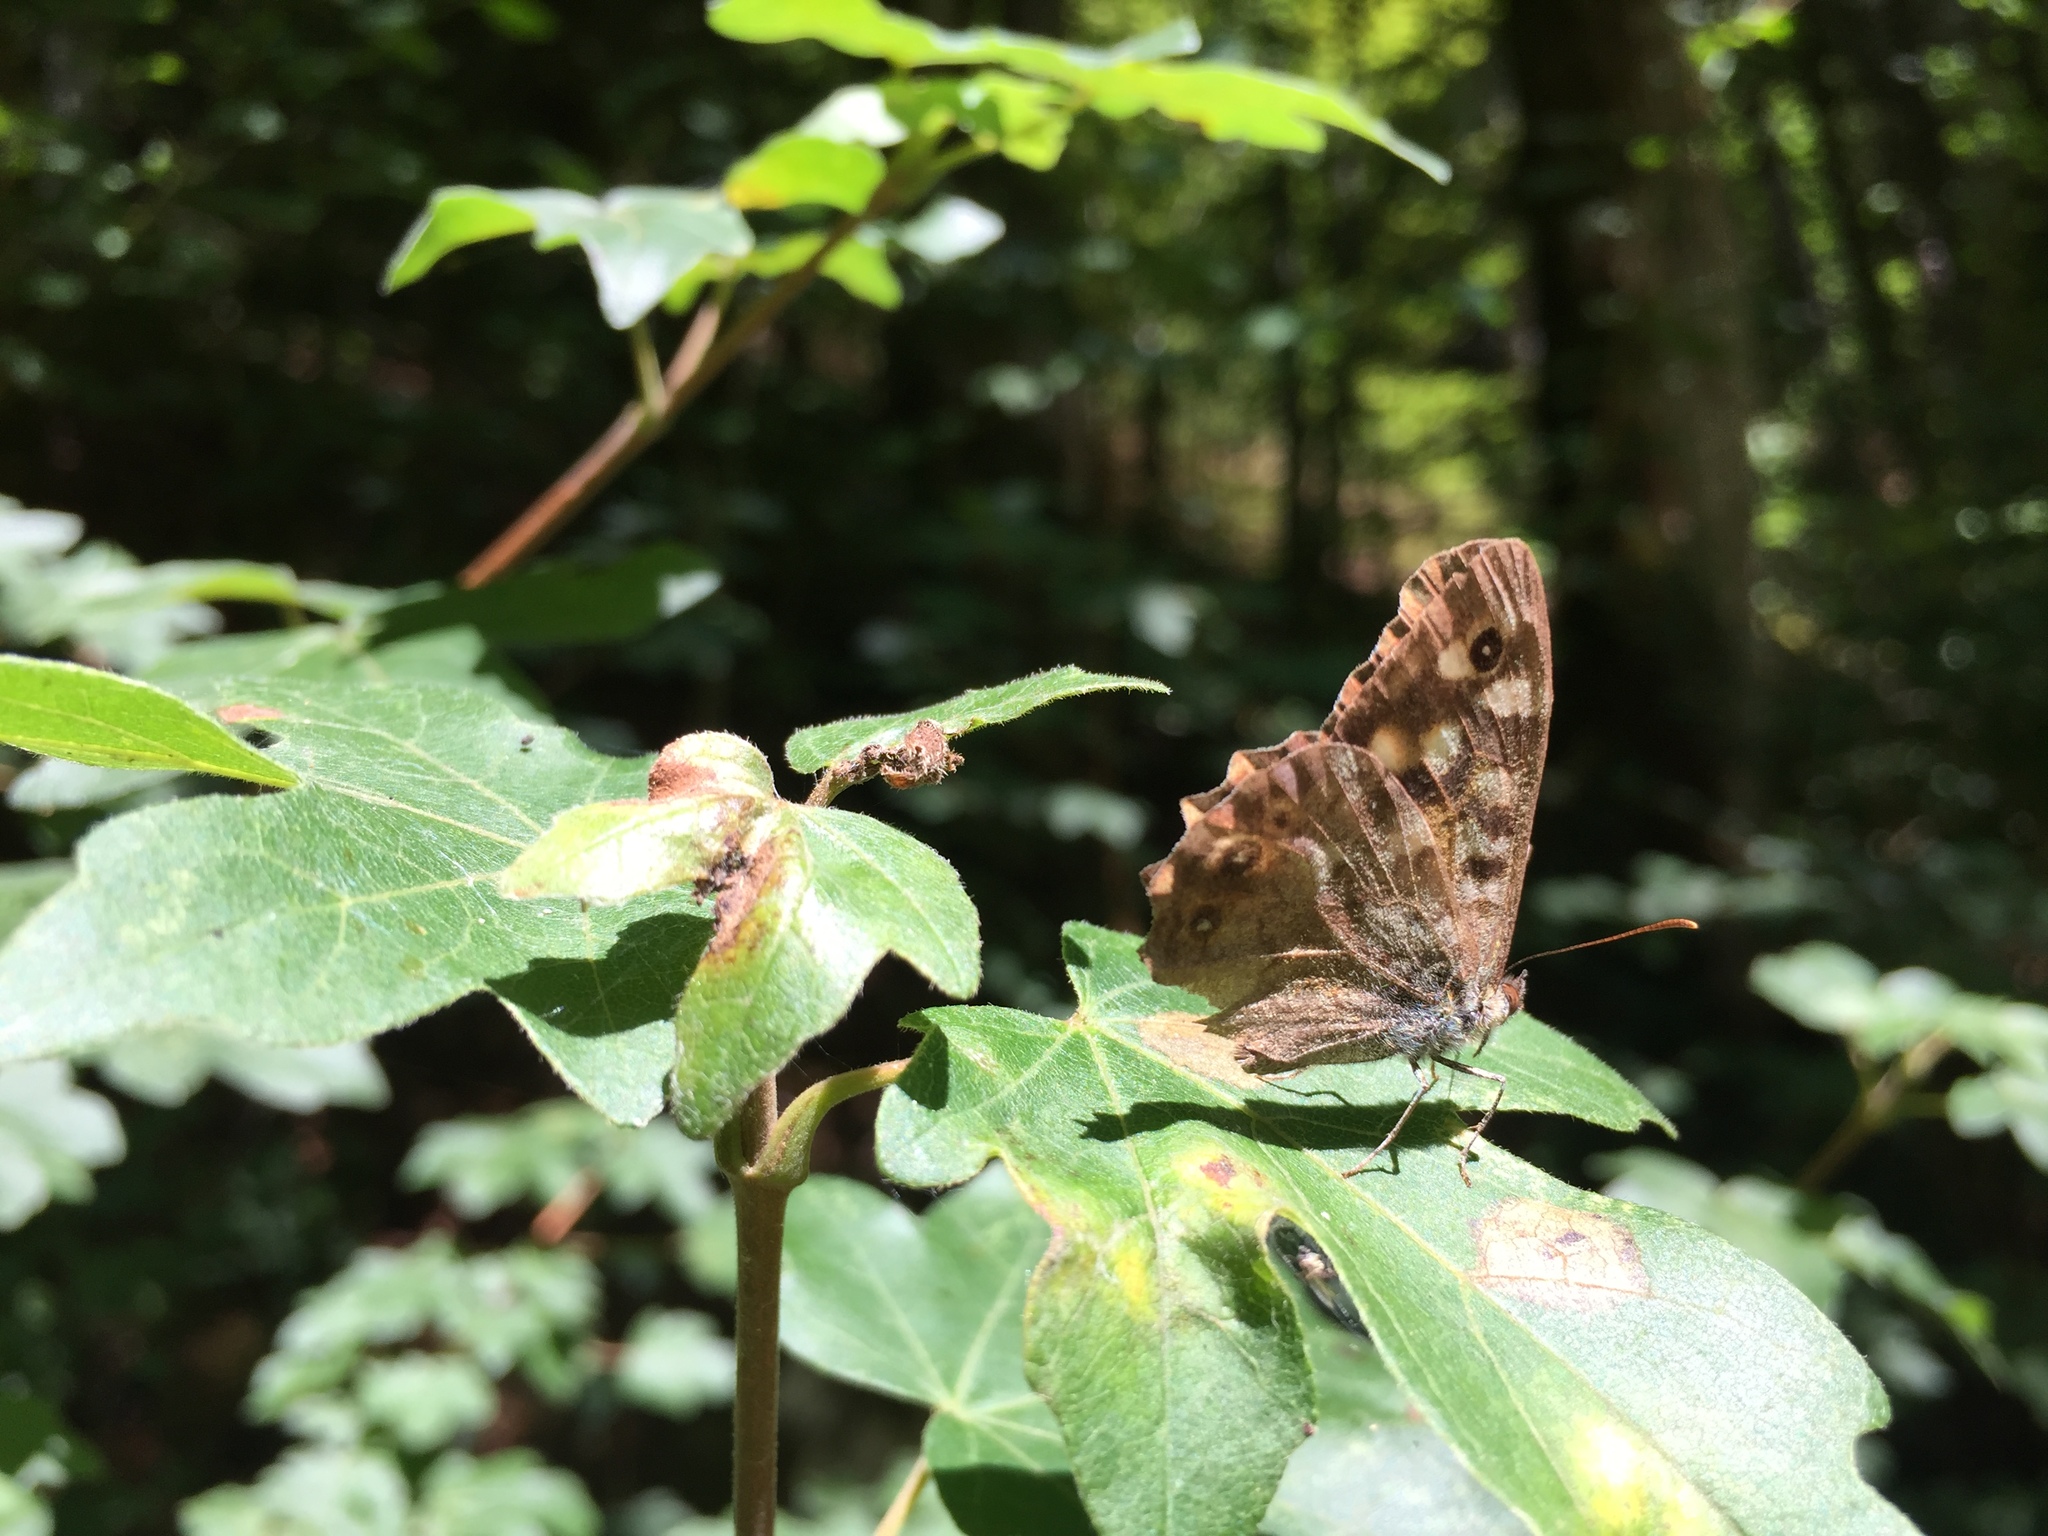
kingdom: Animalia
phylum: Arthropoda
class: Insecta
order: Lepidoptera
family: Nymphalidae
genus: Pararge
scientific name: Pararge aegeria
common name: Speckled wood
